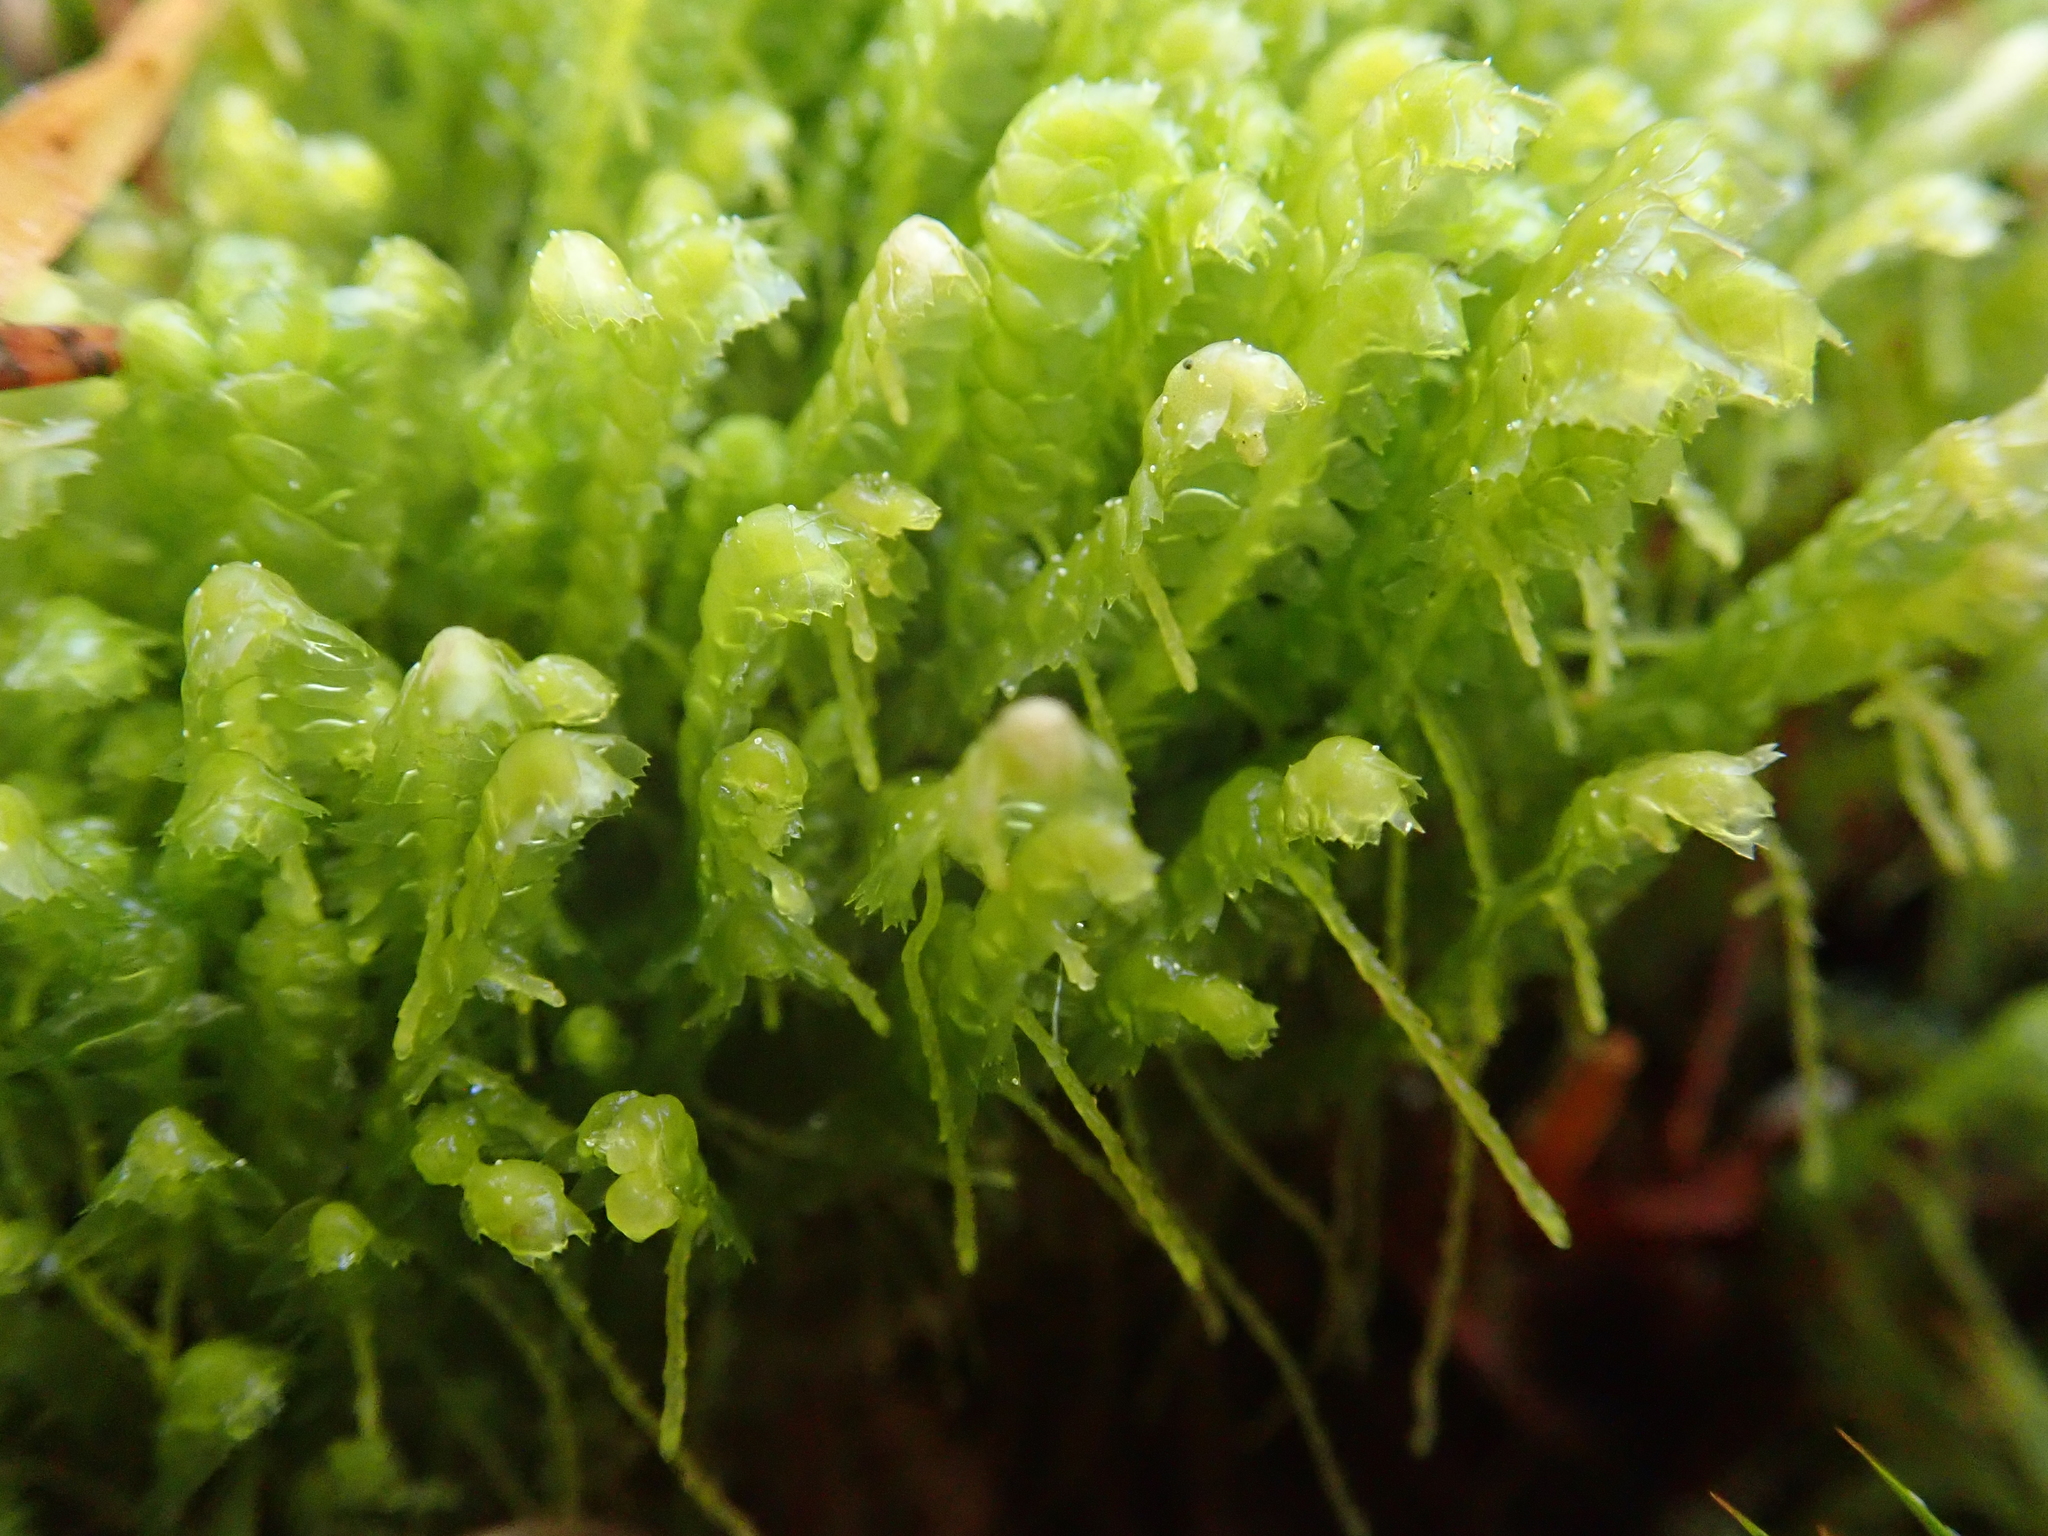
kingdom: Plantae
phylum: Marchantiophyta
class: Jungermanniopsida
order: Jungermanniales
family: Lepidoziaceae
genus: Bazzania
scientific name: Bazzania trilobata
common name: Three-lobed whipwort
